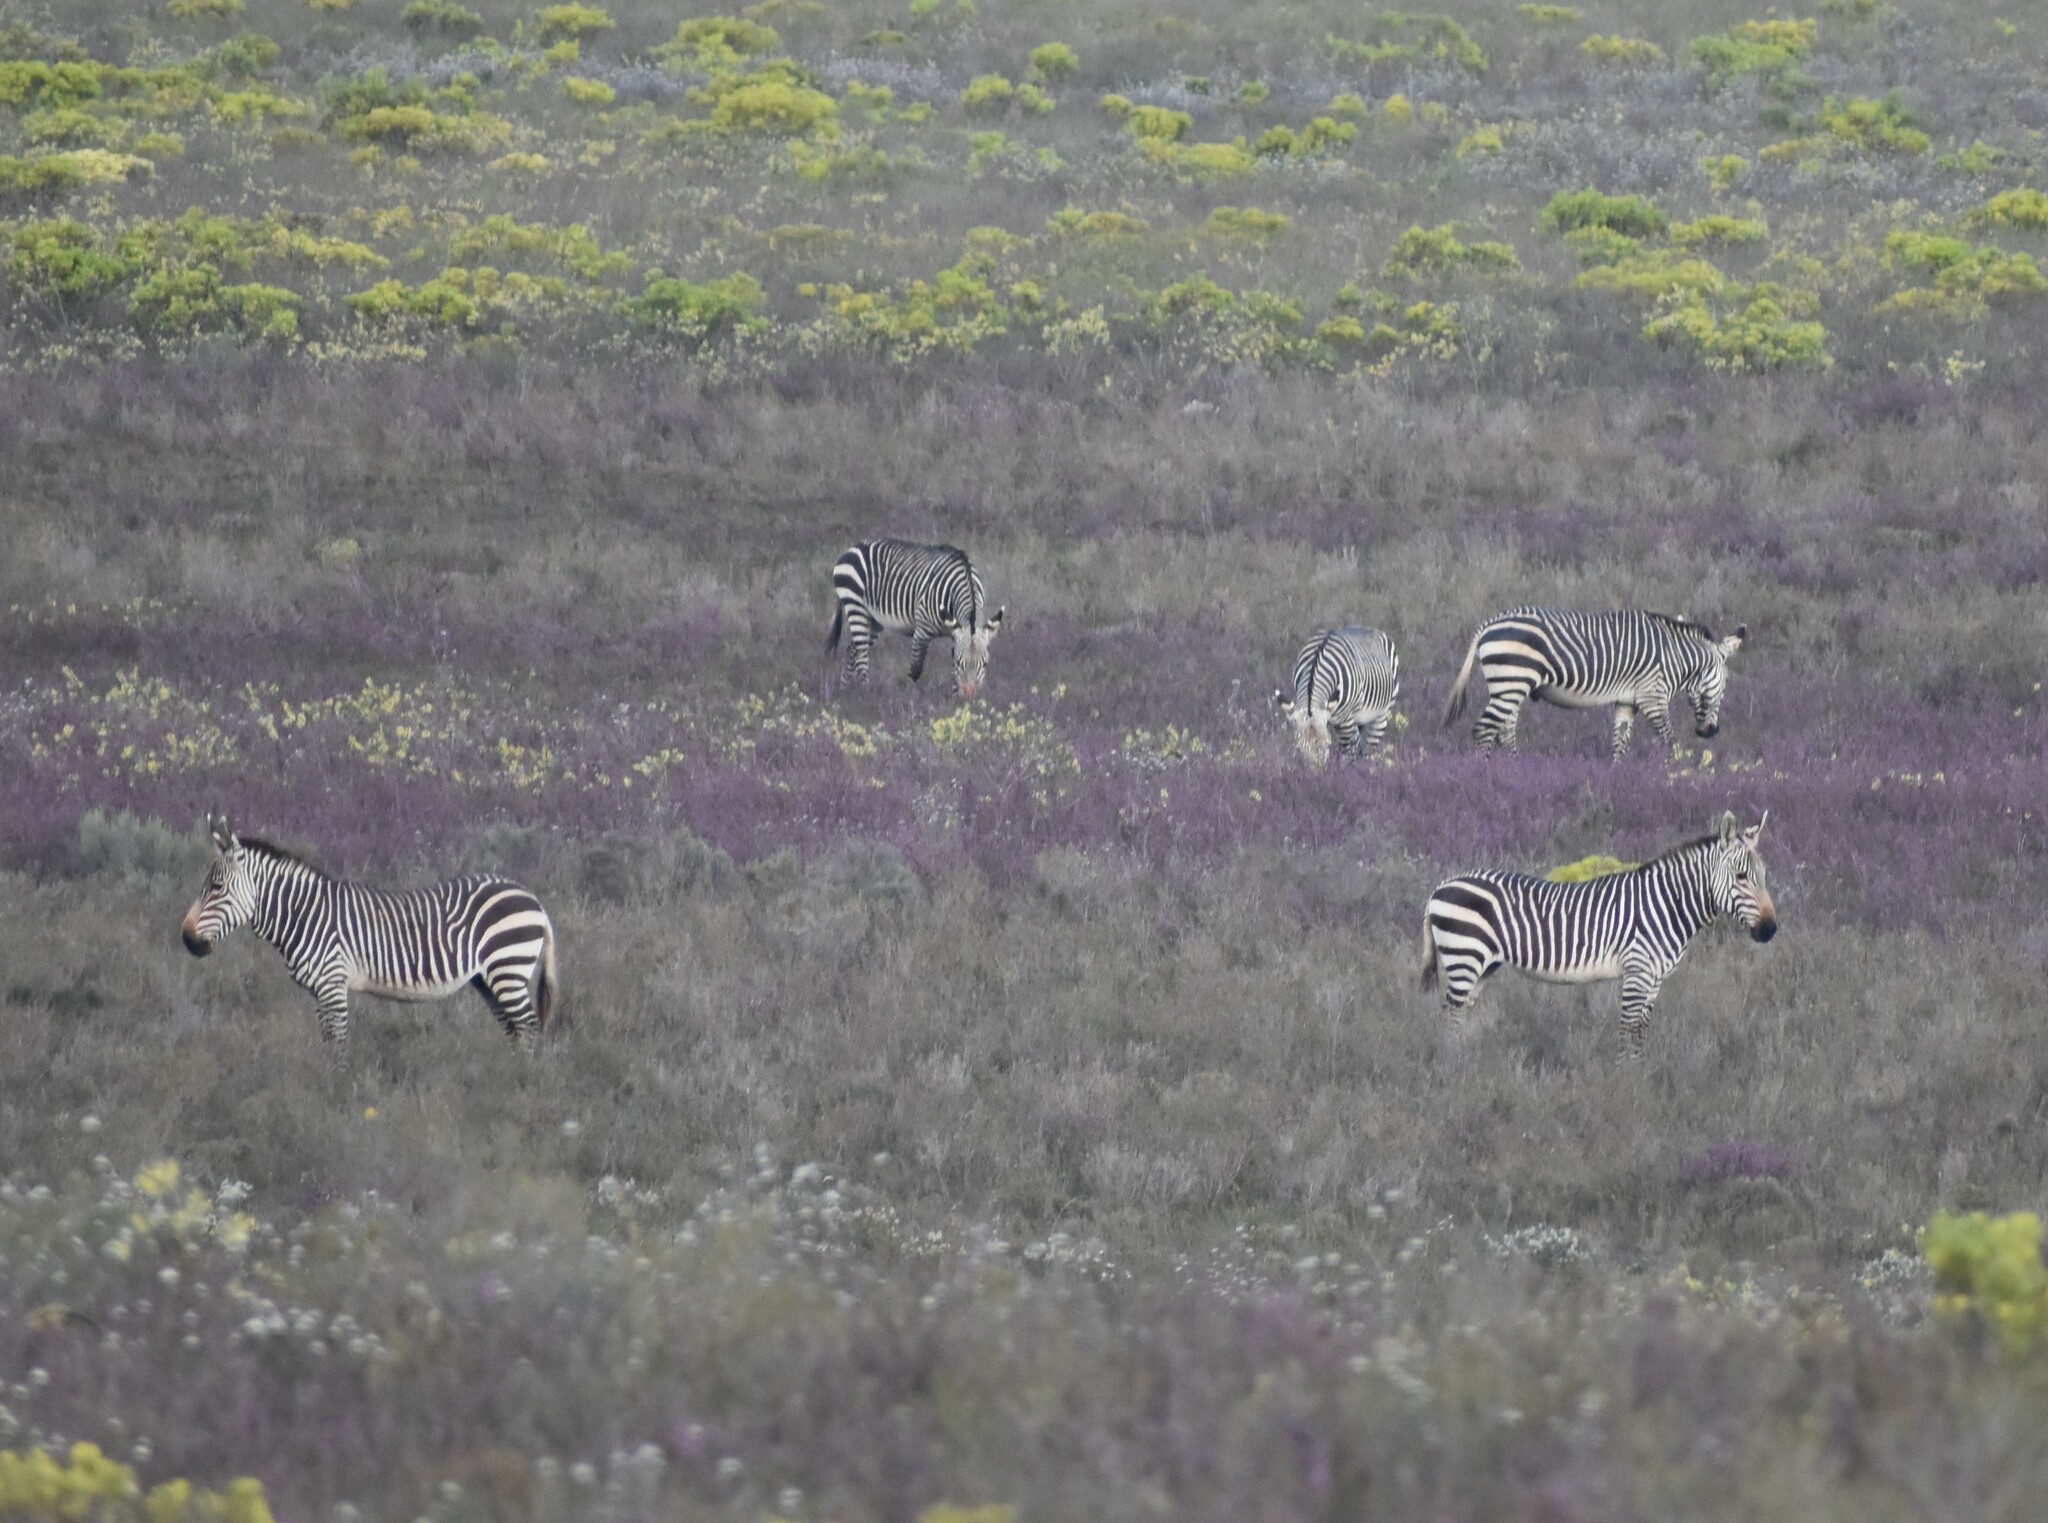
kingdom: Animalia
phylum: Chordata
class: Mammalia
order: Perissodactyla
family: Equidae
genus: Equus
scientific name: Equus zebra
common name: Mountain zebra
